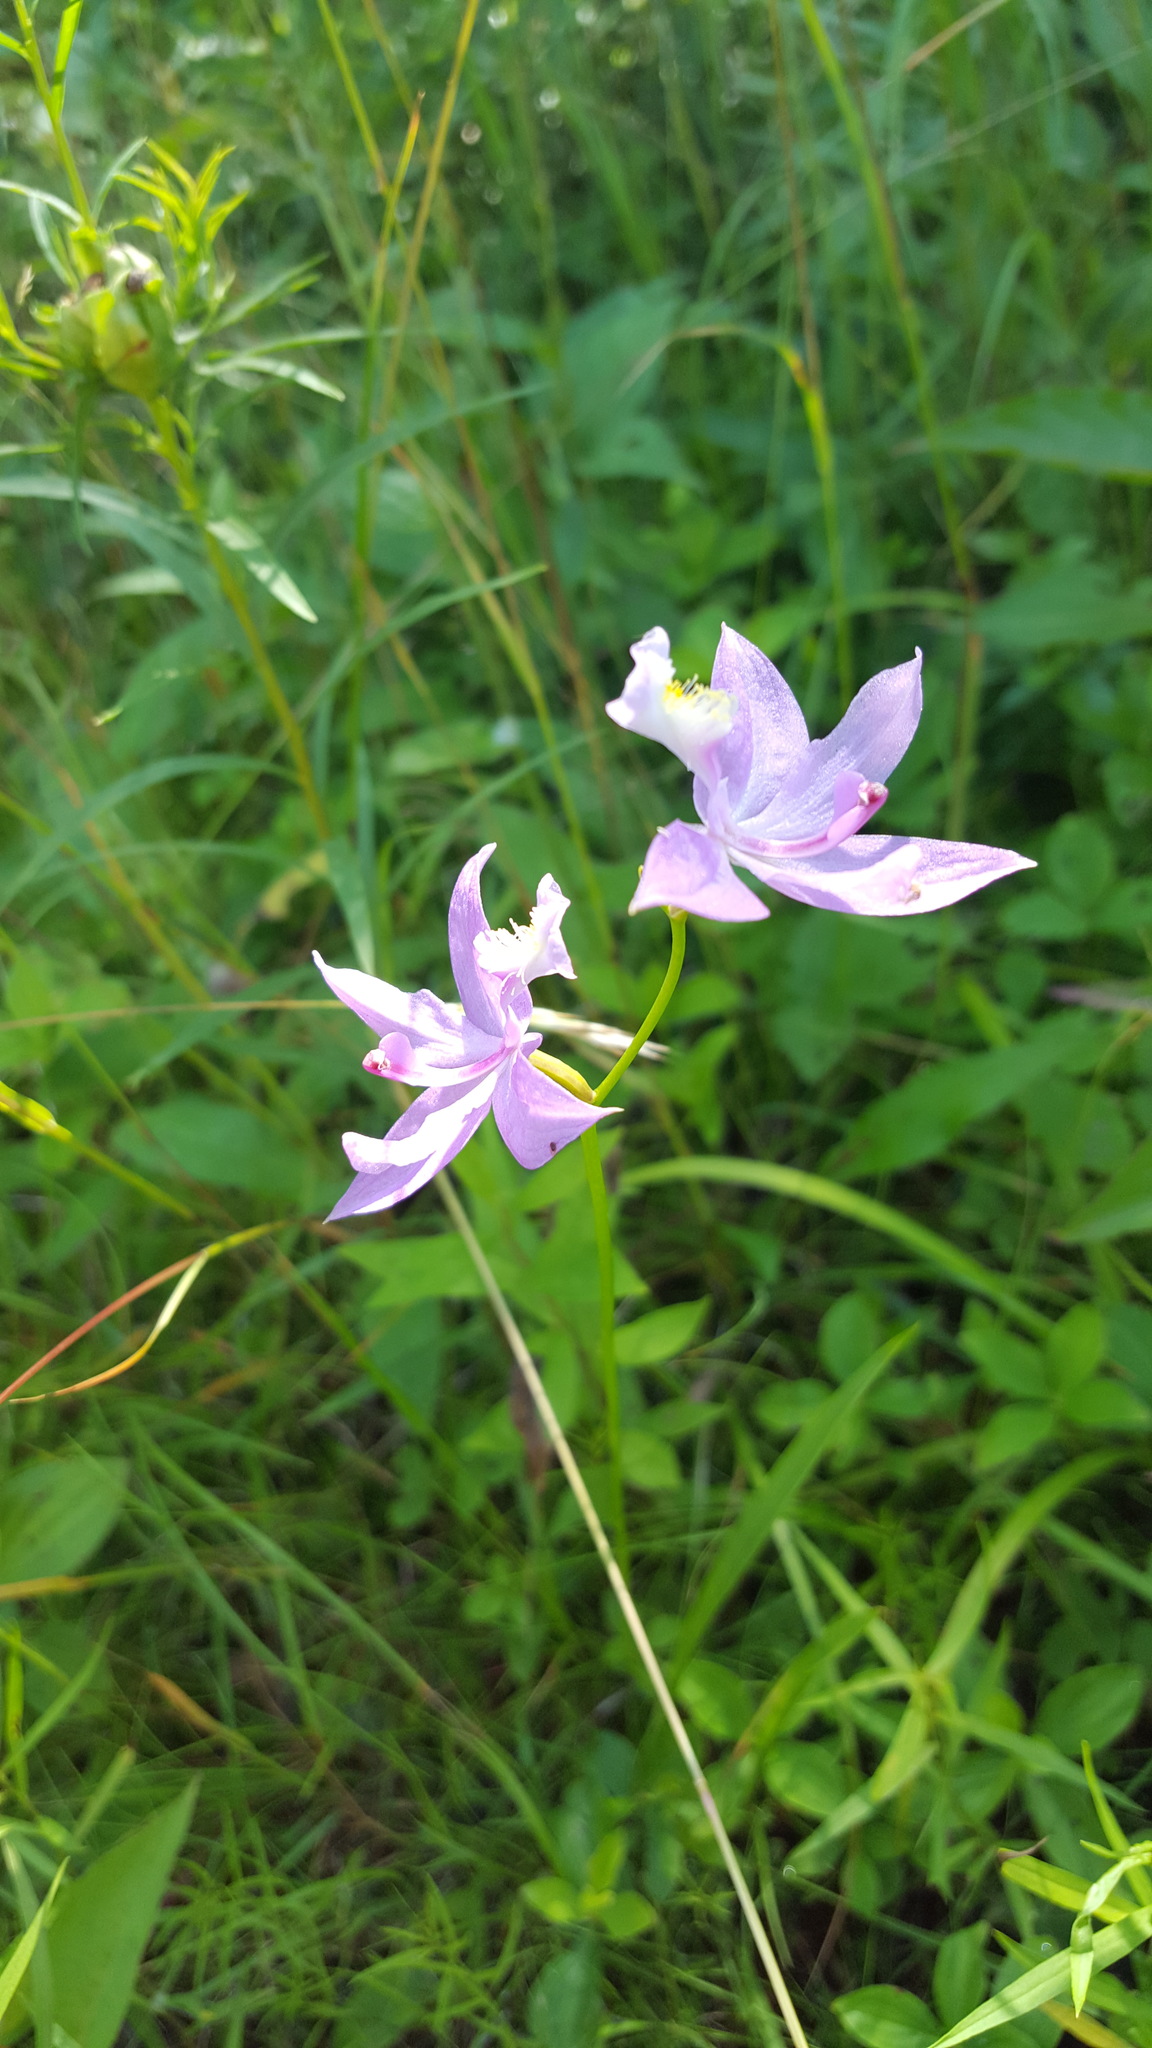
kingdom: Plantae
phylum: Tracheophyta
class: Liliopsida
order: Asparagales
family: Orchidaceae
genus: Calopogon
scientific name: Calopogon tuberosus
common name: Grass-pink
